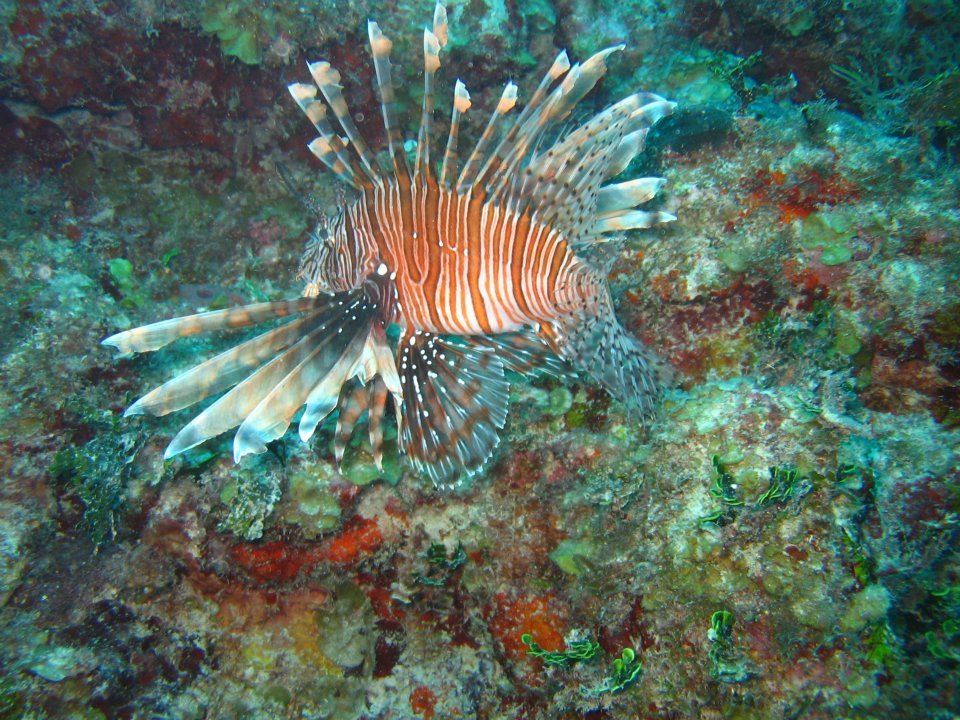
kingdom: Animalia
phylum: Chordata
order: Scorpaeniformes
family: Scorpaenidae
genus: Pterois
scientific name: Pterois volitans
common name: Lionfish
